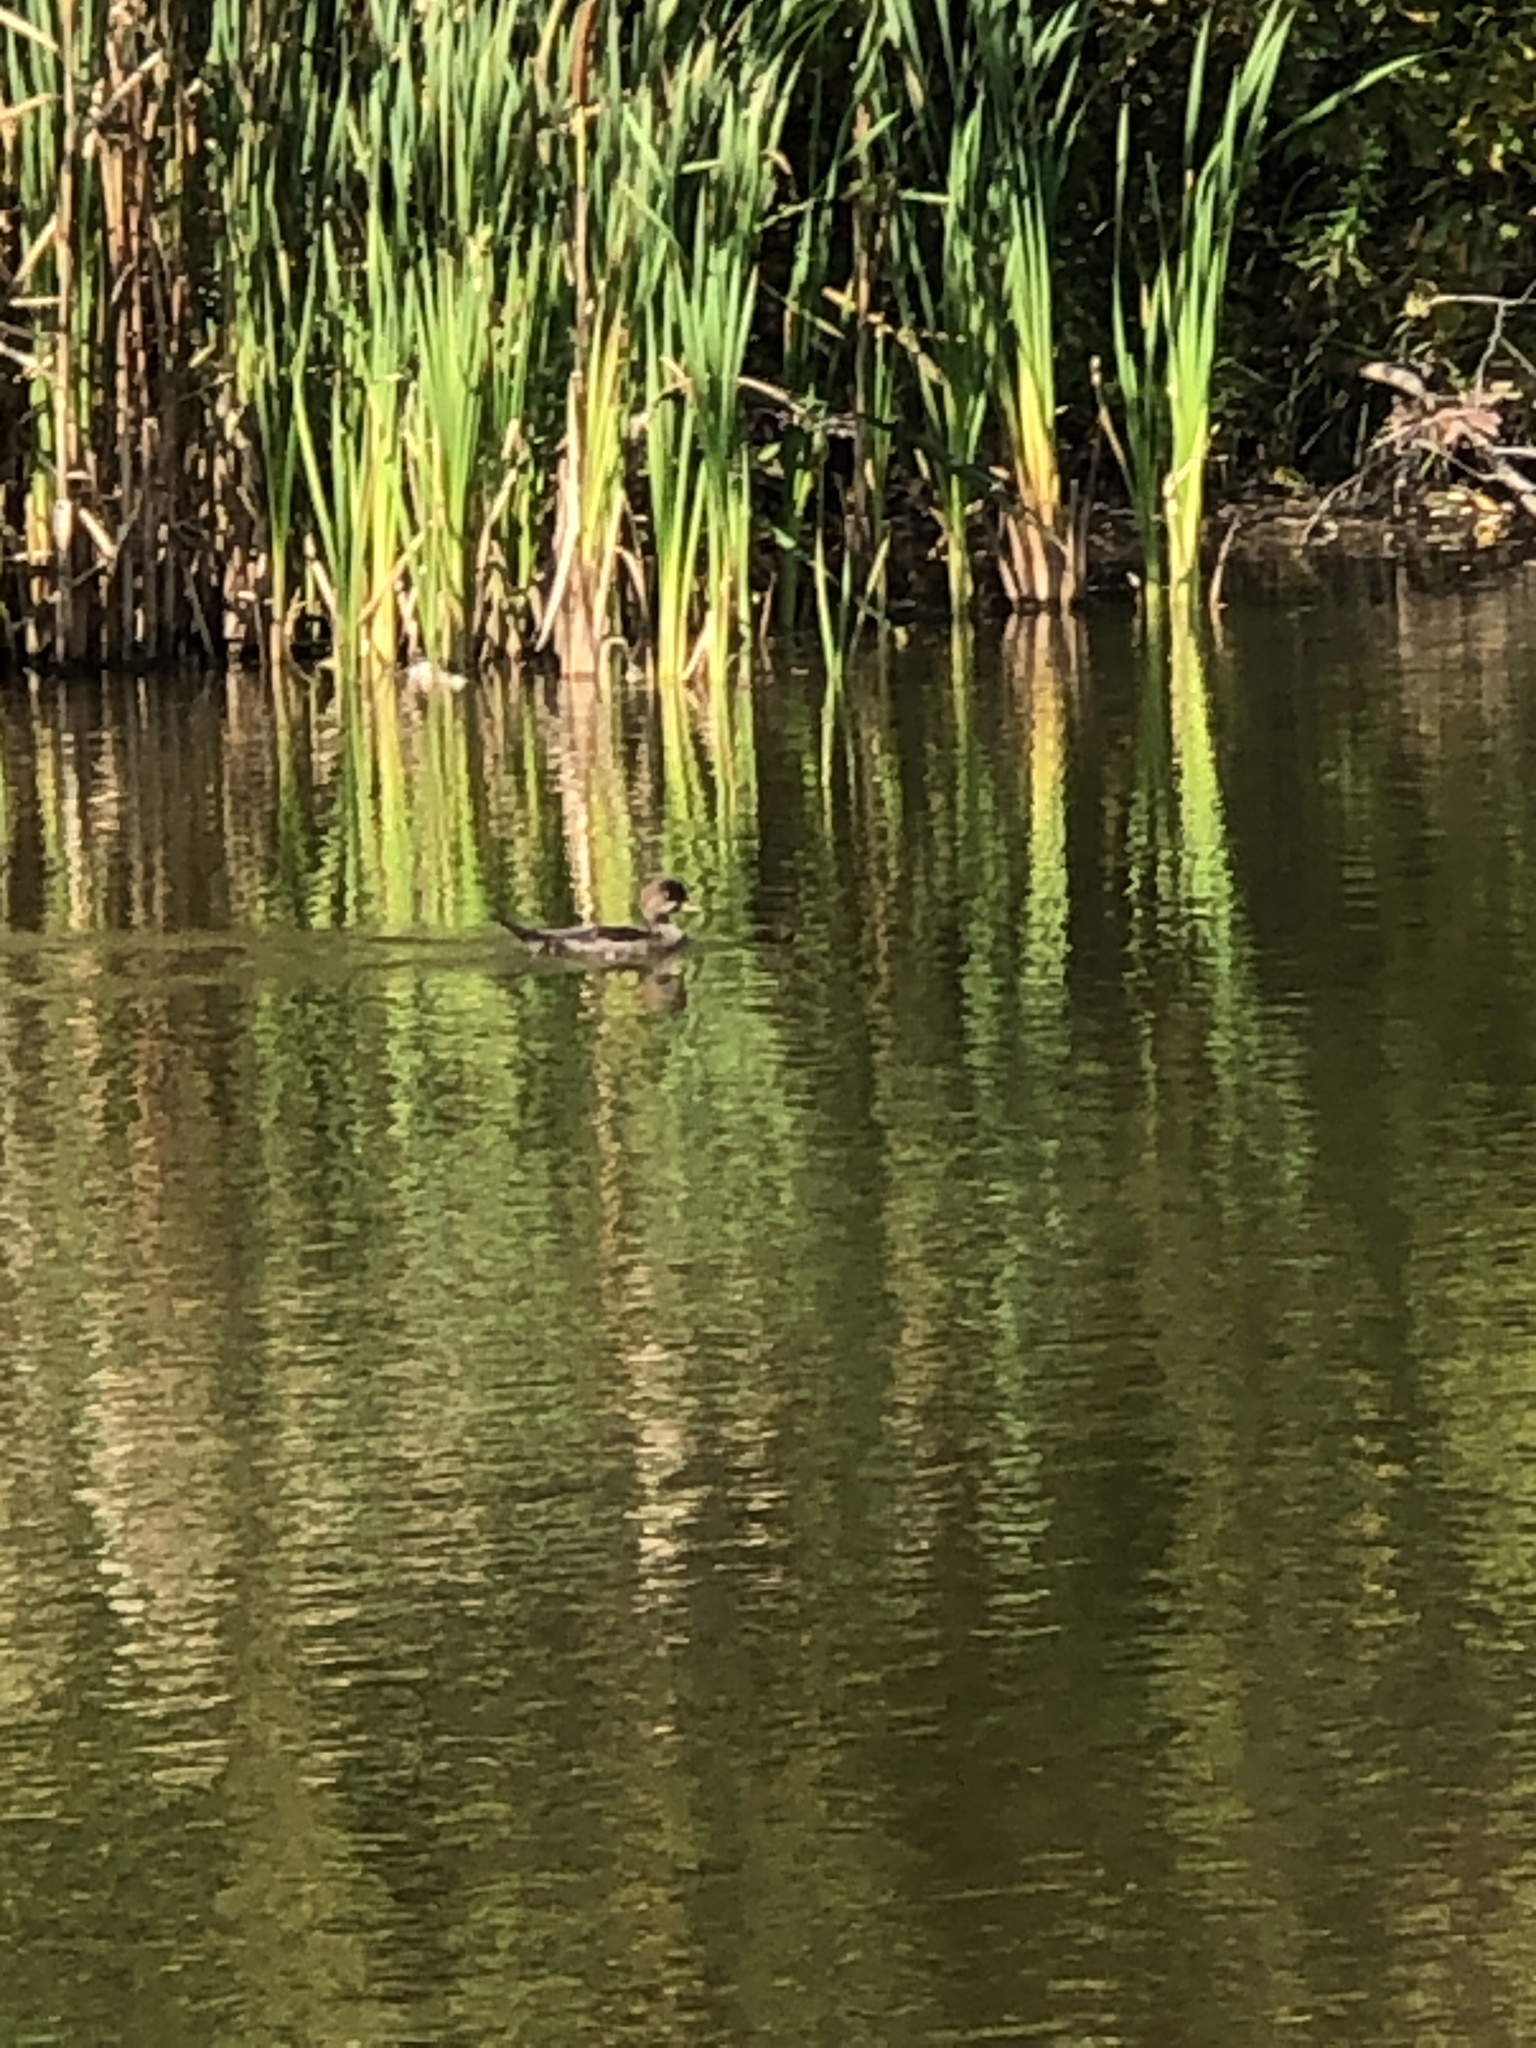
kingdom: Animalia
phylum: Chordata
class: Aves
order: Anseriformes
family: Anatidae
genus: Lophodytes
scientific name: Lophodytes cucullatus
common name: Hooded merganser
